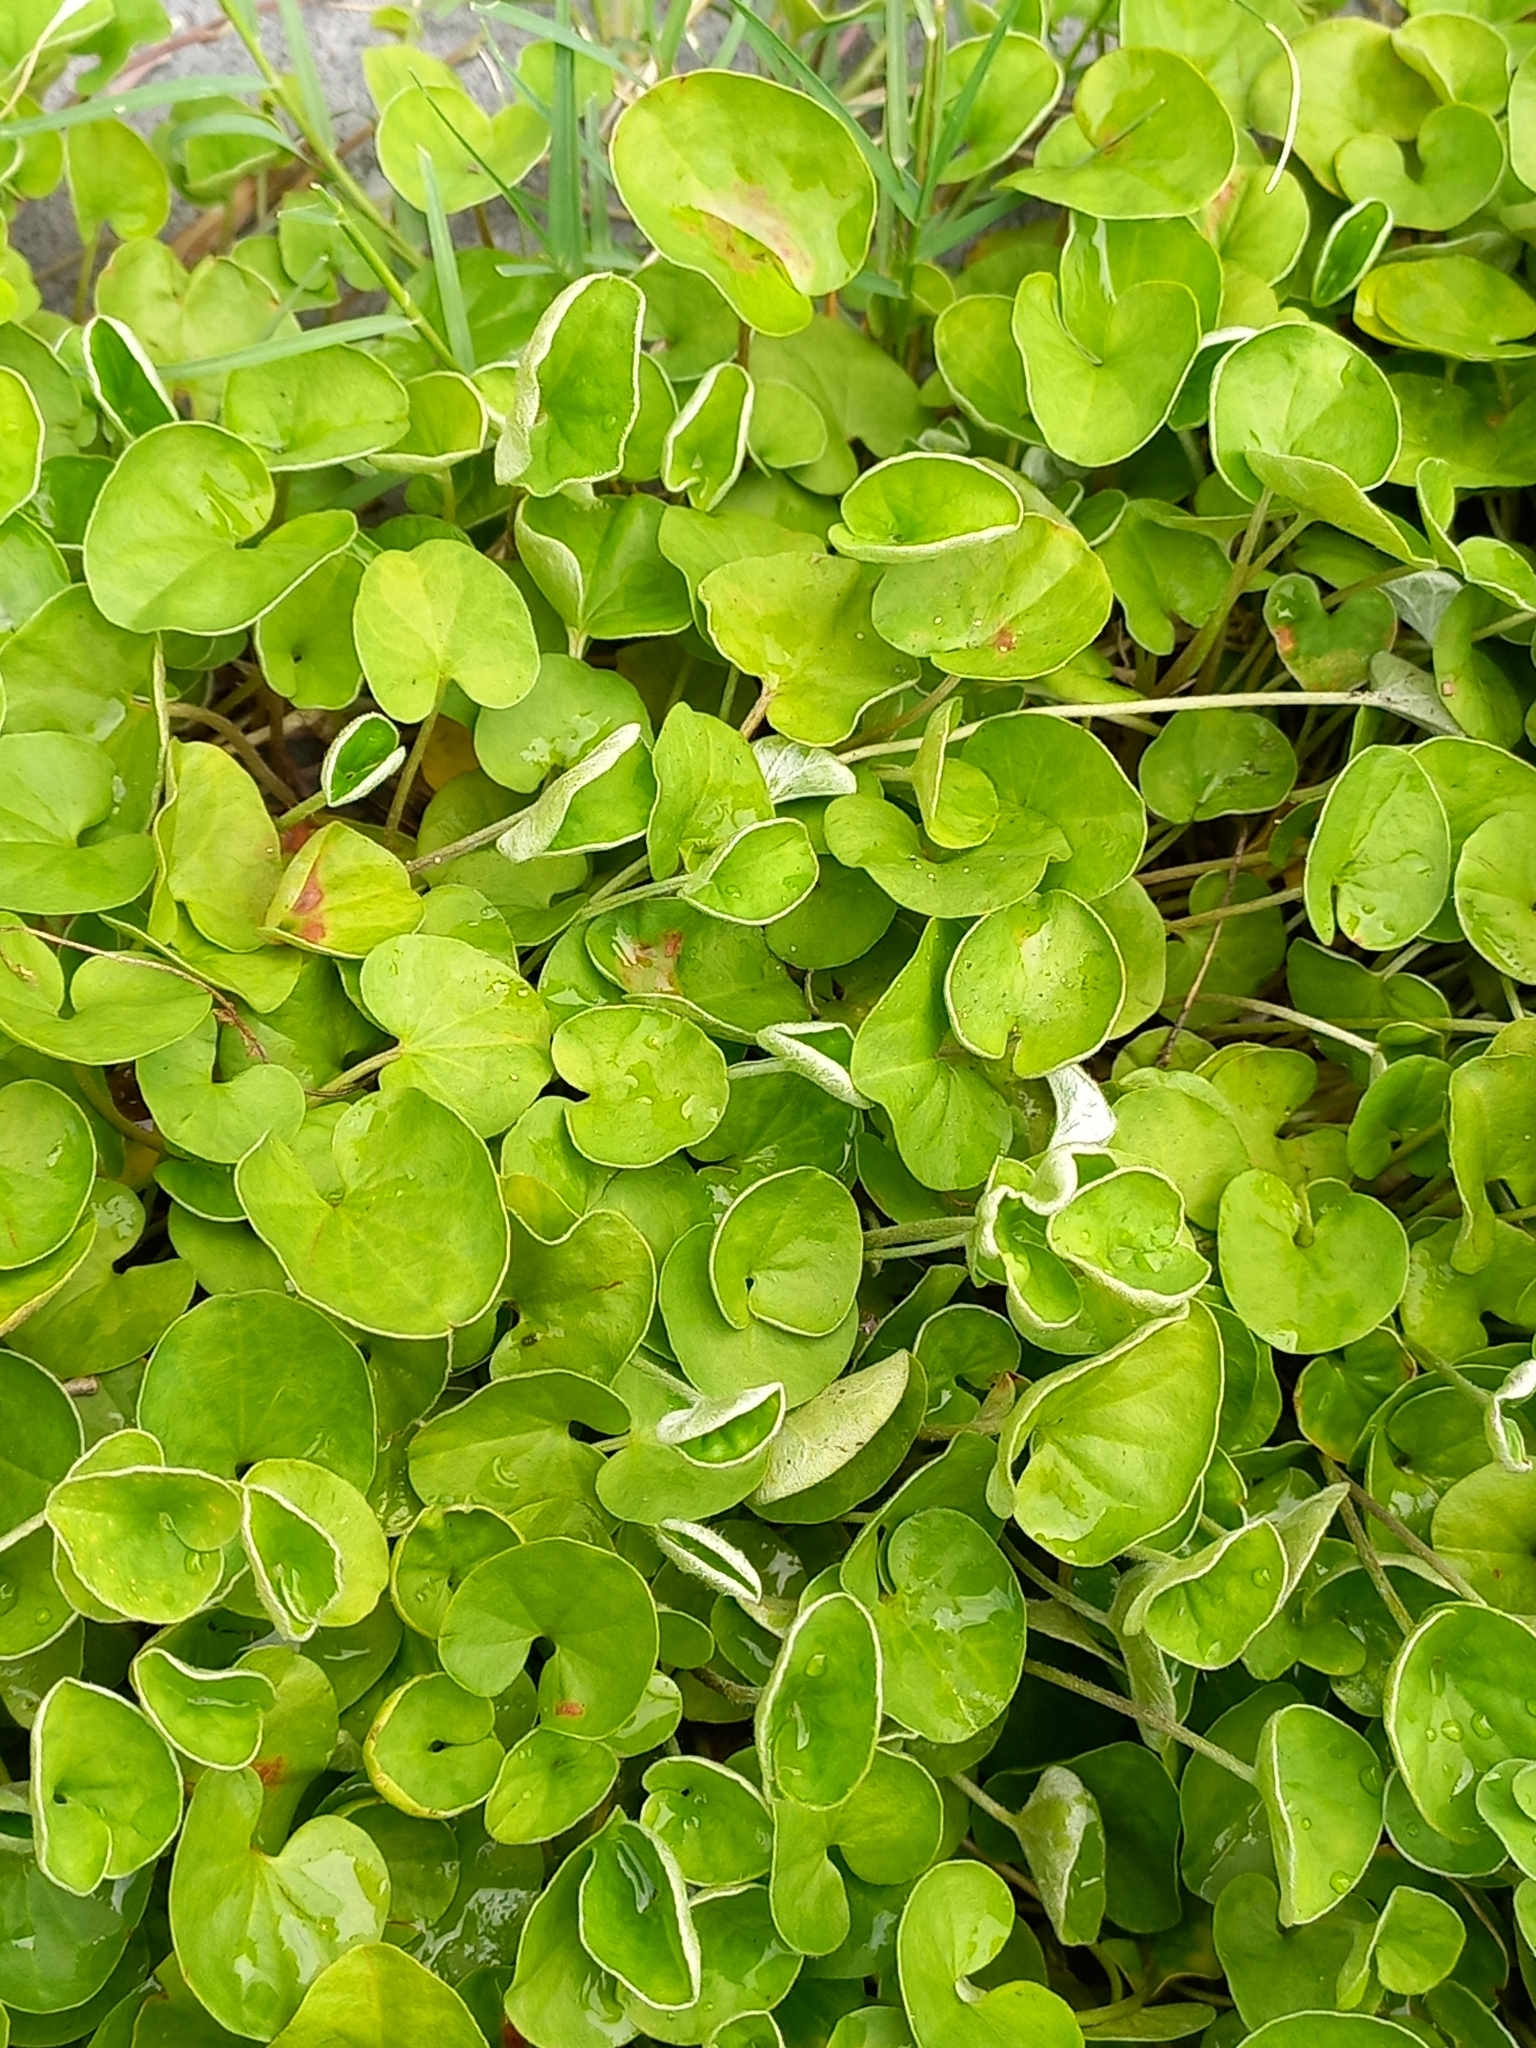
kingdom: Plantae
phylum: Tracheophyta
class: Magnoliopsida
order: Solanales
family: Convolvulaceae
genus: Dichondra
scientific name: Dichondra repens
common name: Kidneyweed
